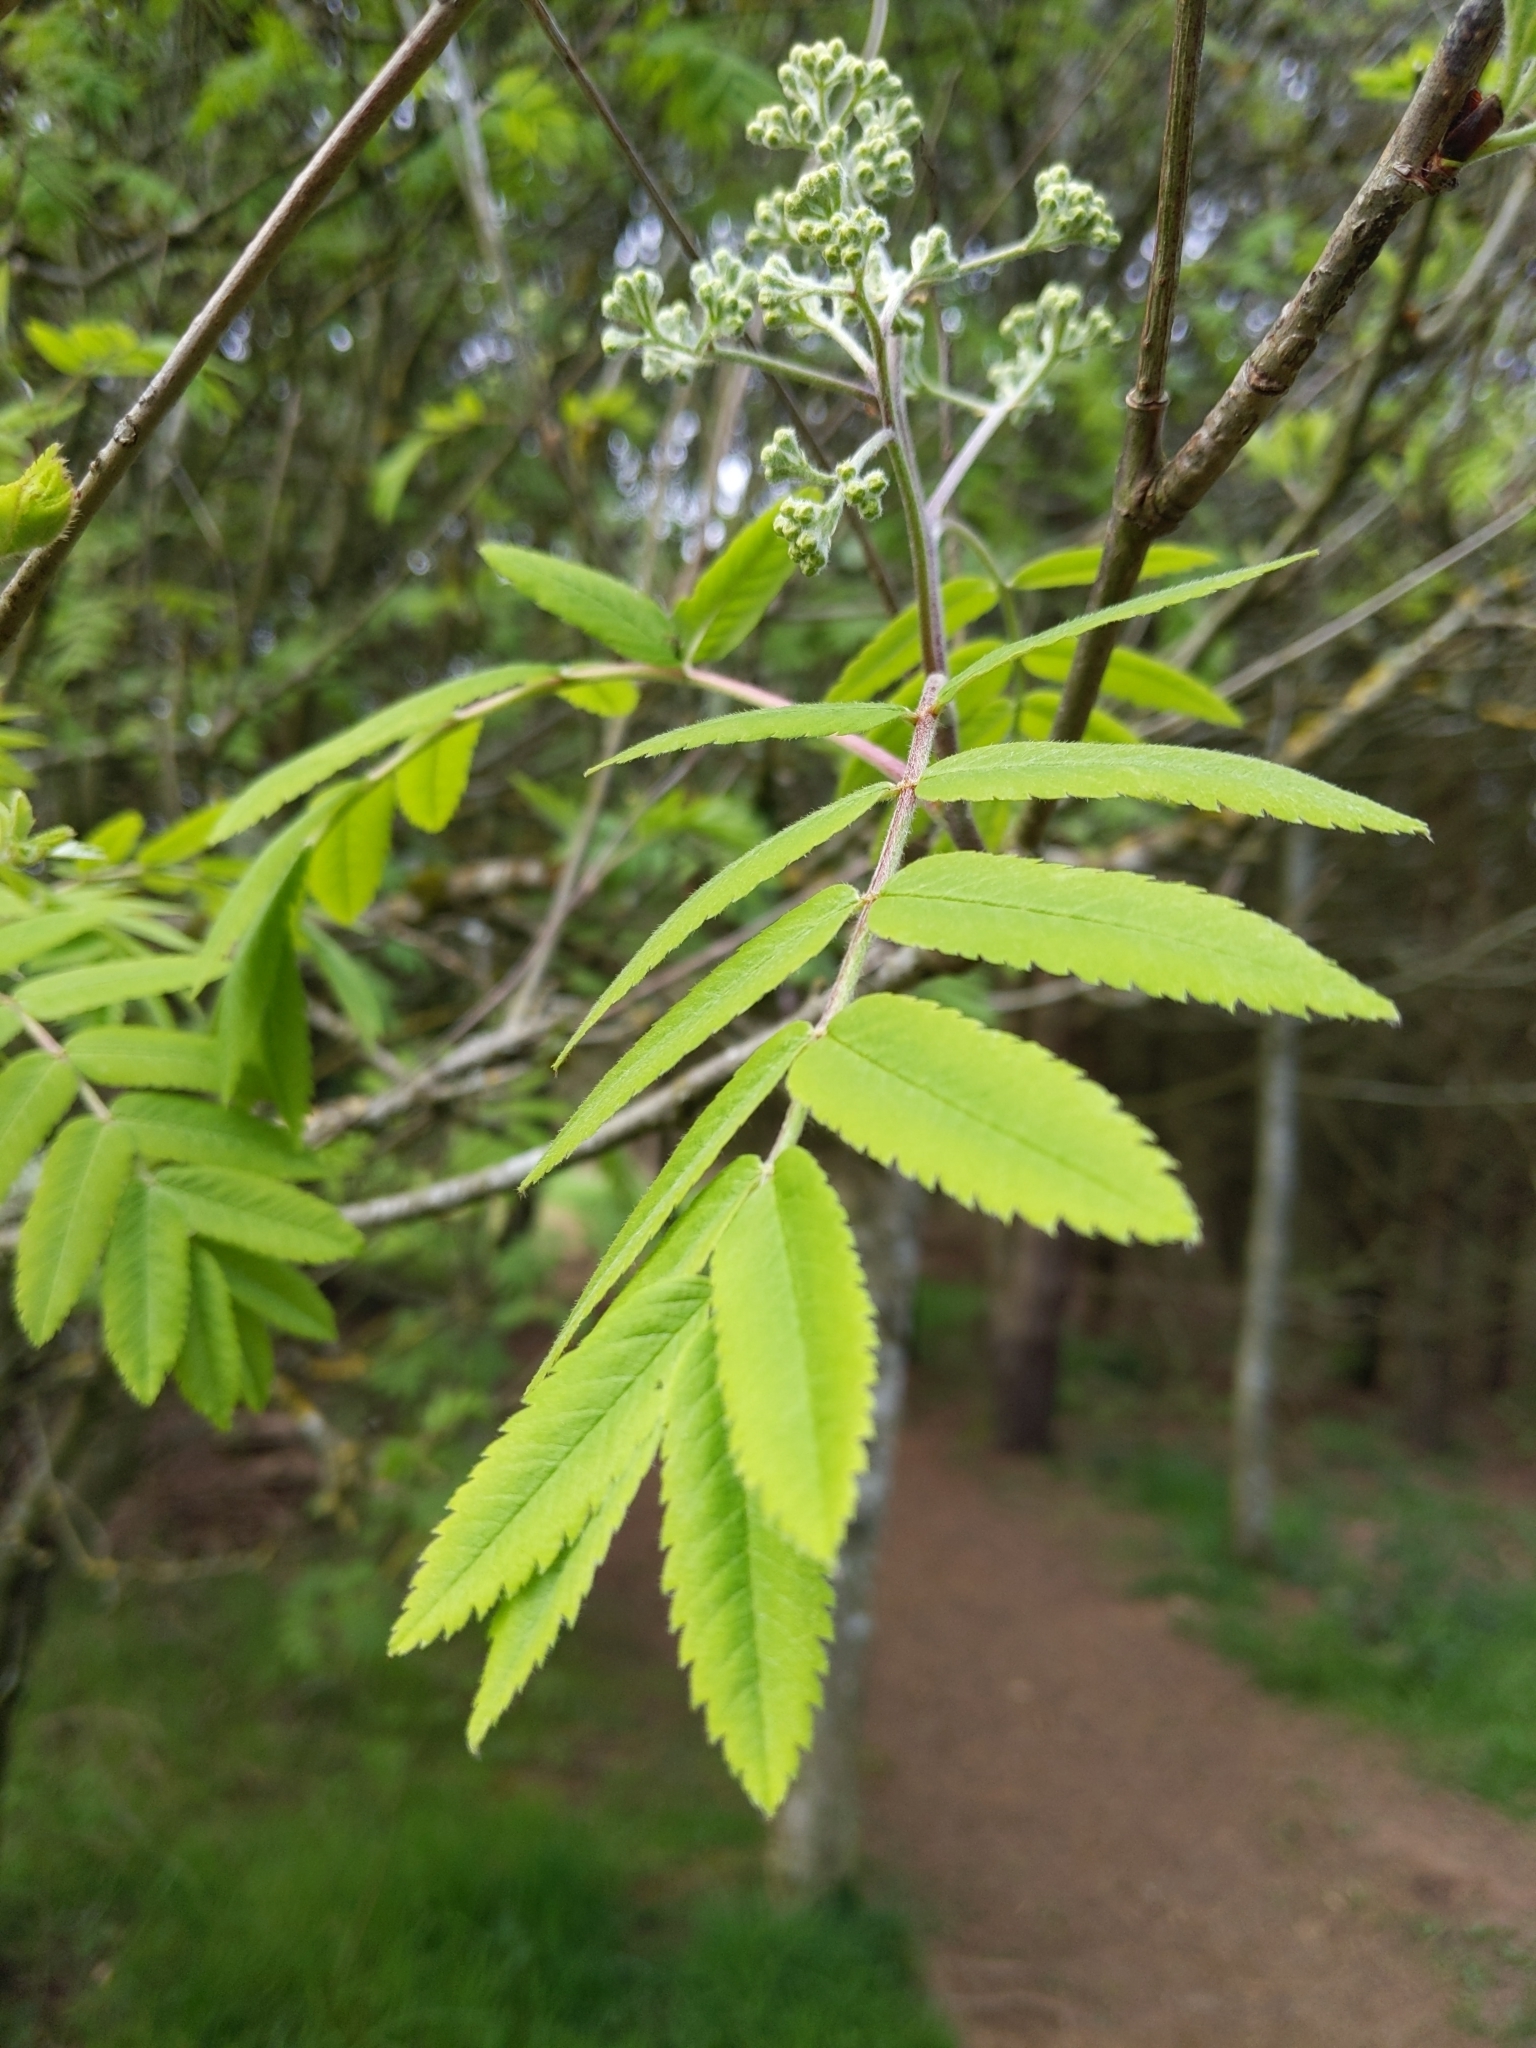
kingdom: Plantae
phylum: Tracheophyta
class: Magnoliopsida
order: Rosales
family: Rosaceae
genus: Sorbus
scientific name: Sorbus aucuparia
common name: Rowan
